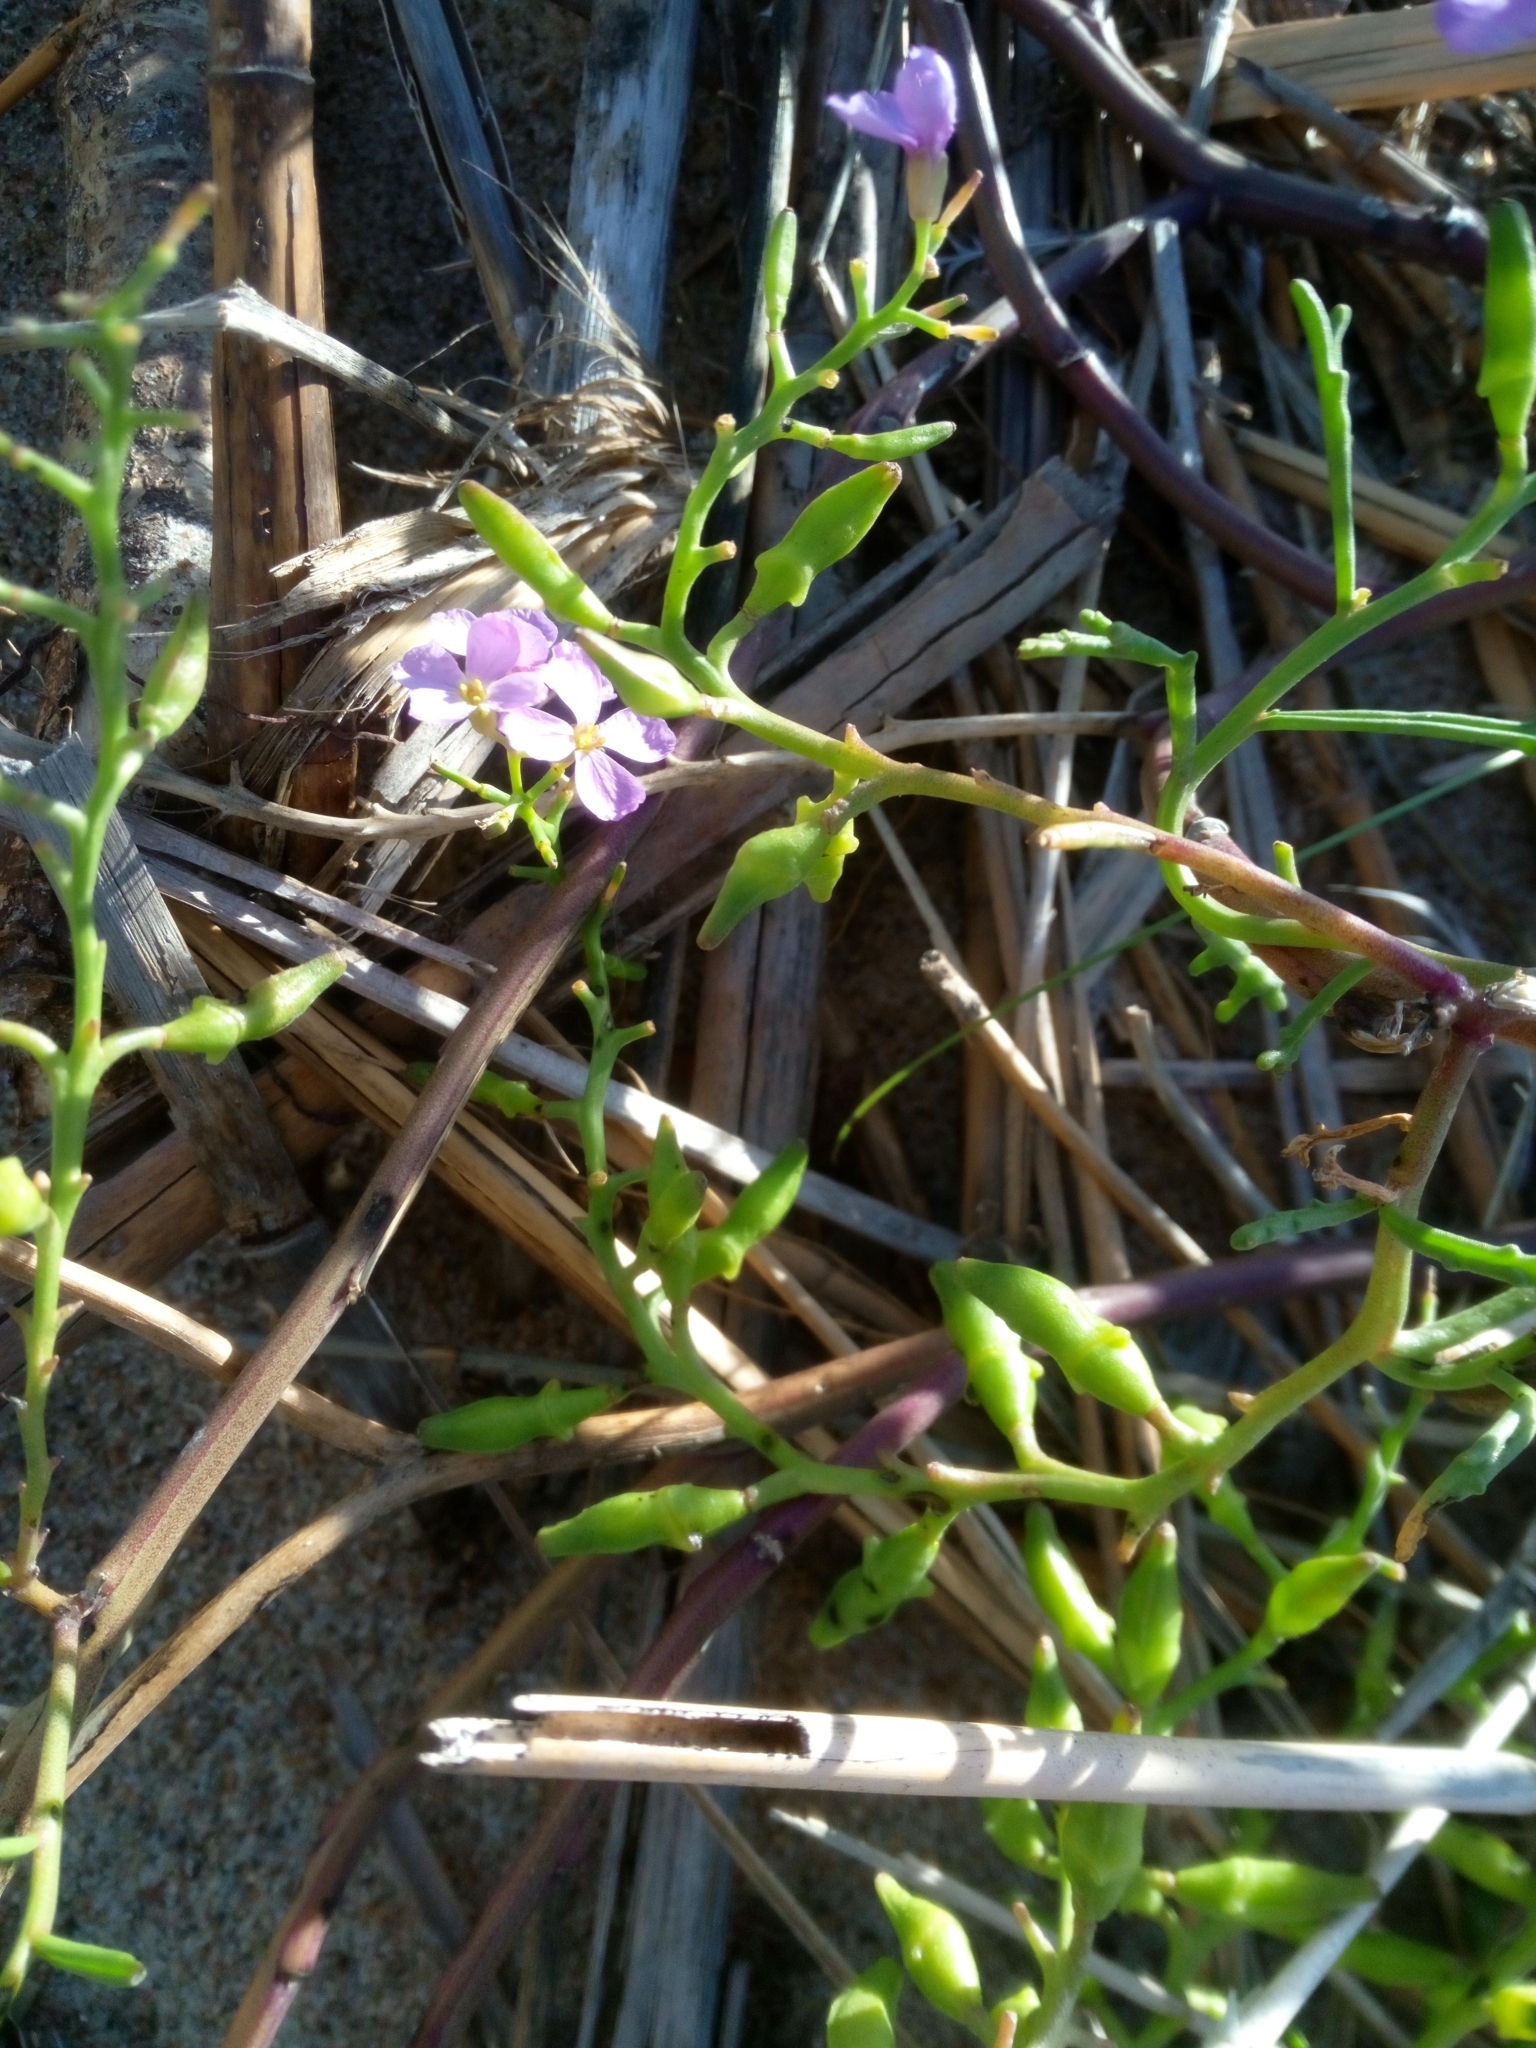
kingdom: Plantae
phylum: Tracheophyta
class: Magnoliopsida
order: Brassicales
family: Brassicaceae
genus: Cakile
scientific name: Cakile maritima
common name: Sea rocket
